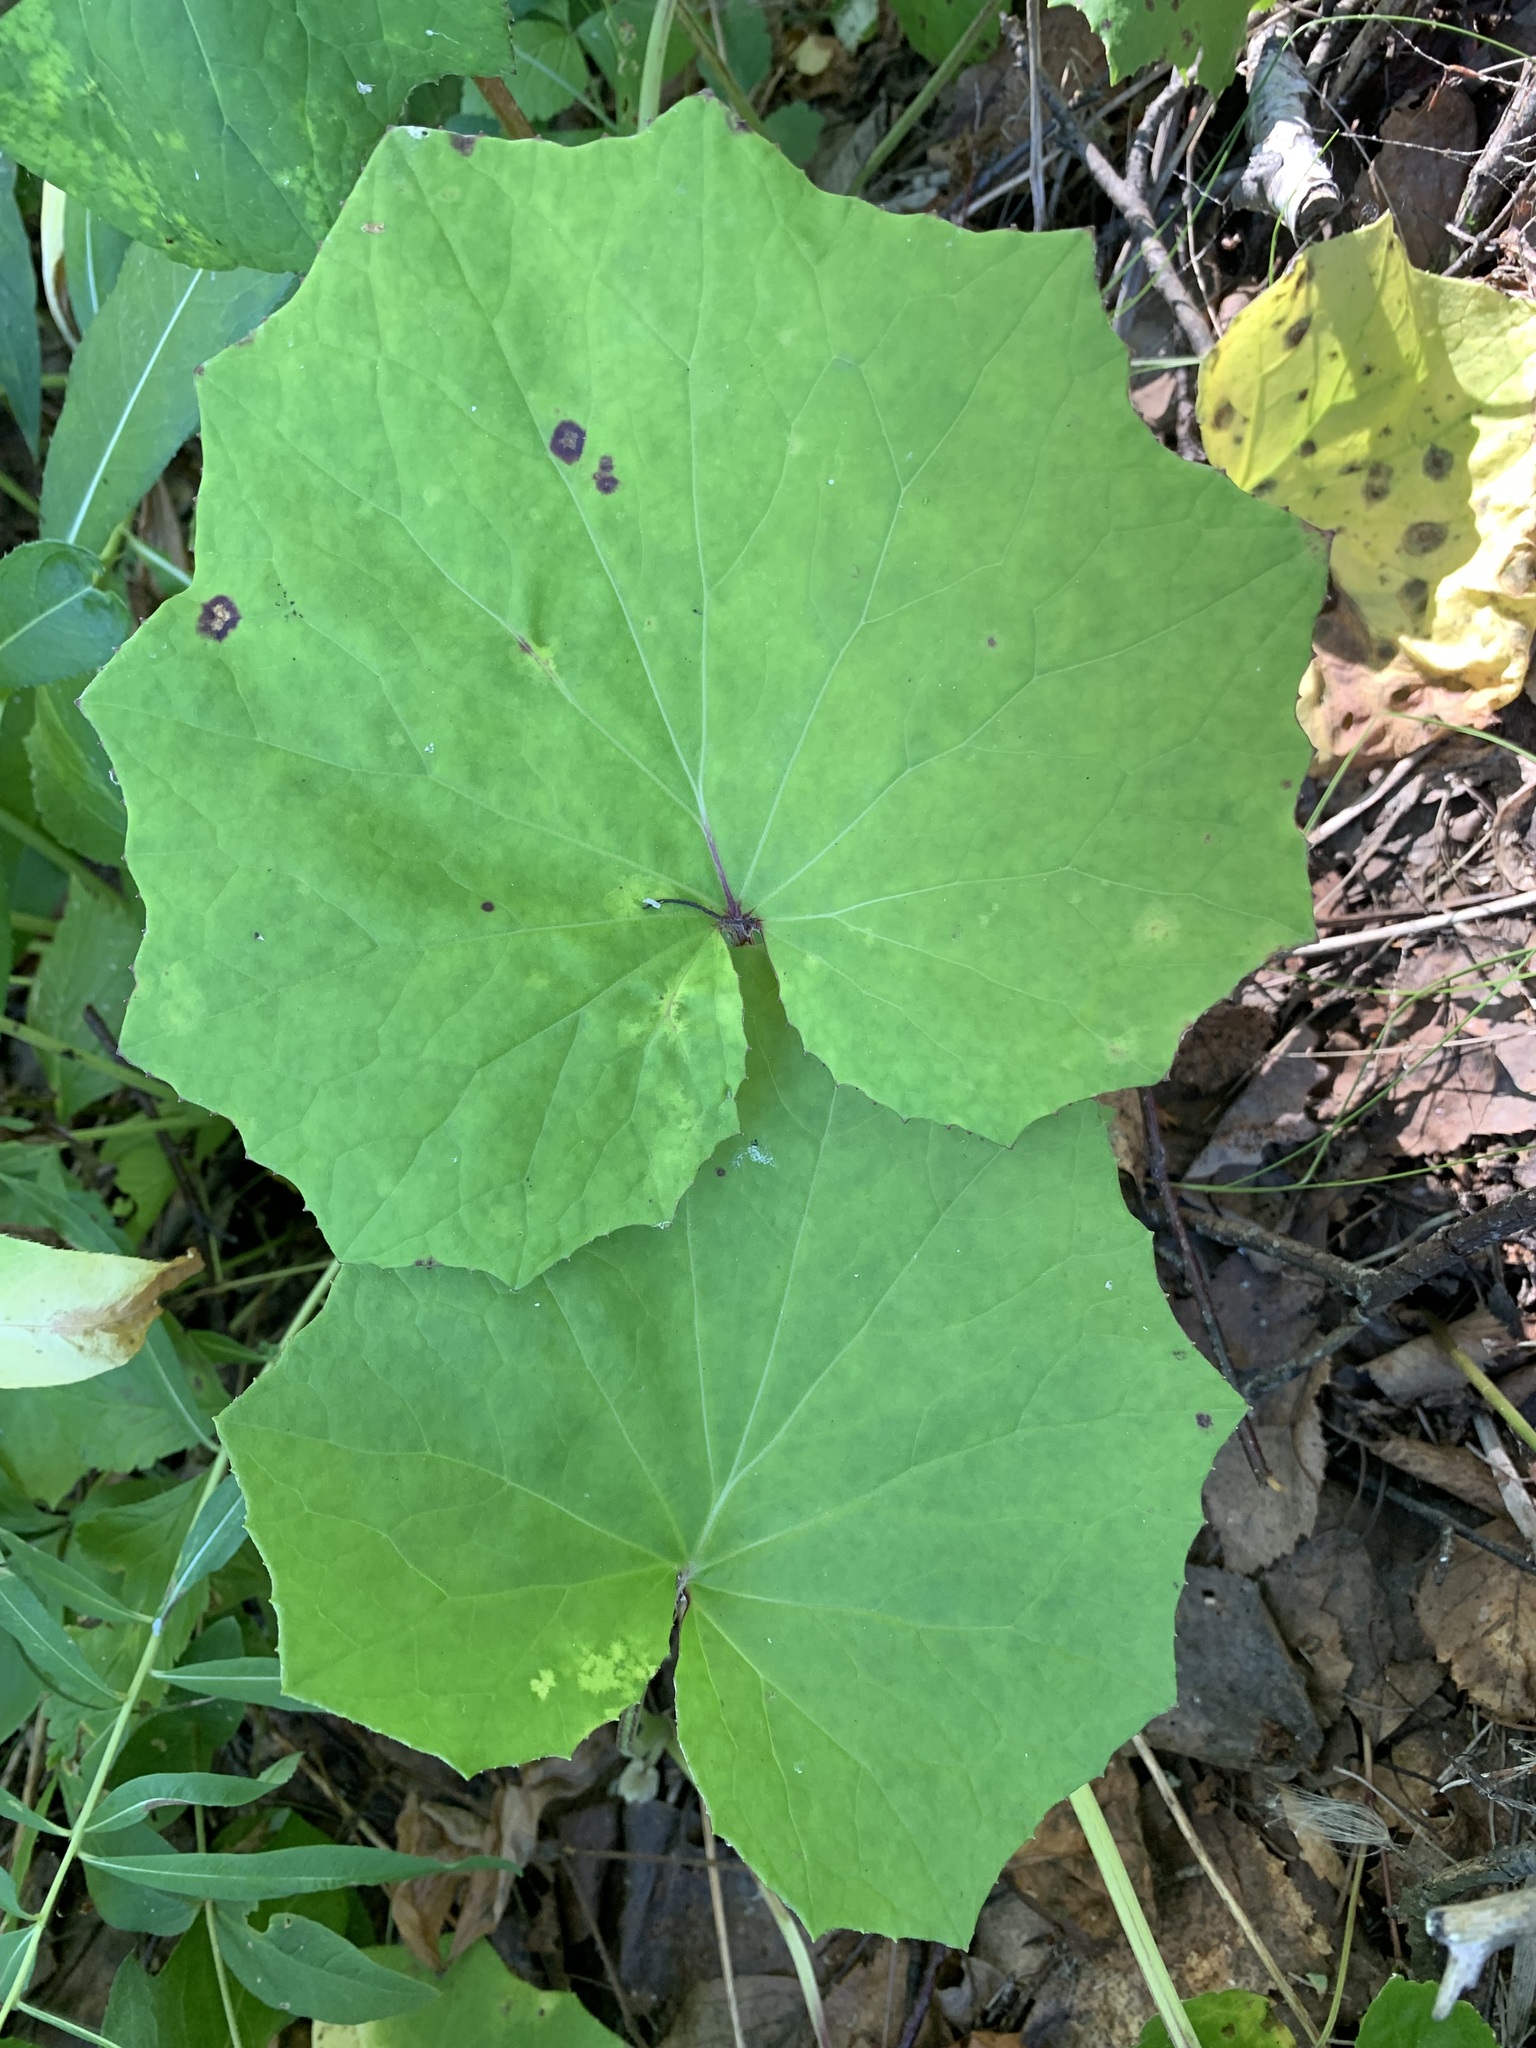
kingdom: Plantae
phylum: Tracheophyta
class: Magnoliopsida
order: Asterales
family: Asteraceae
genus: Tussilago
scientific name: Tussilago farfara
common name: Coltsfoot
